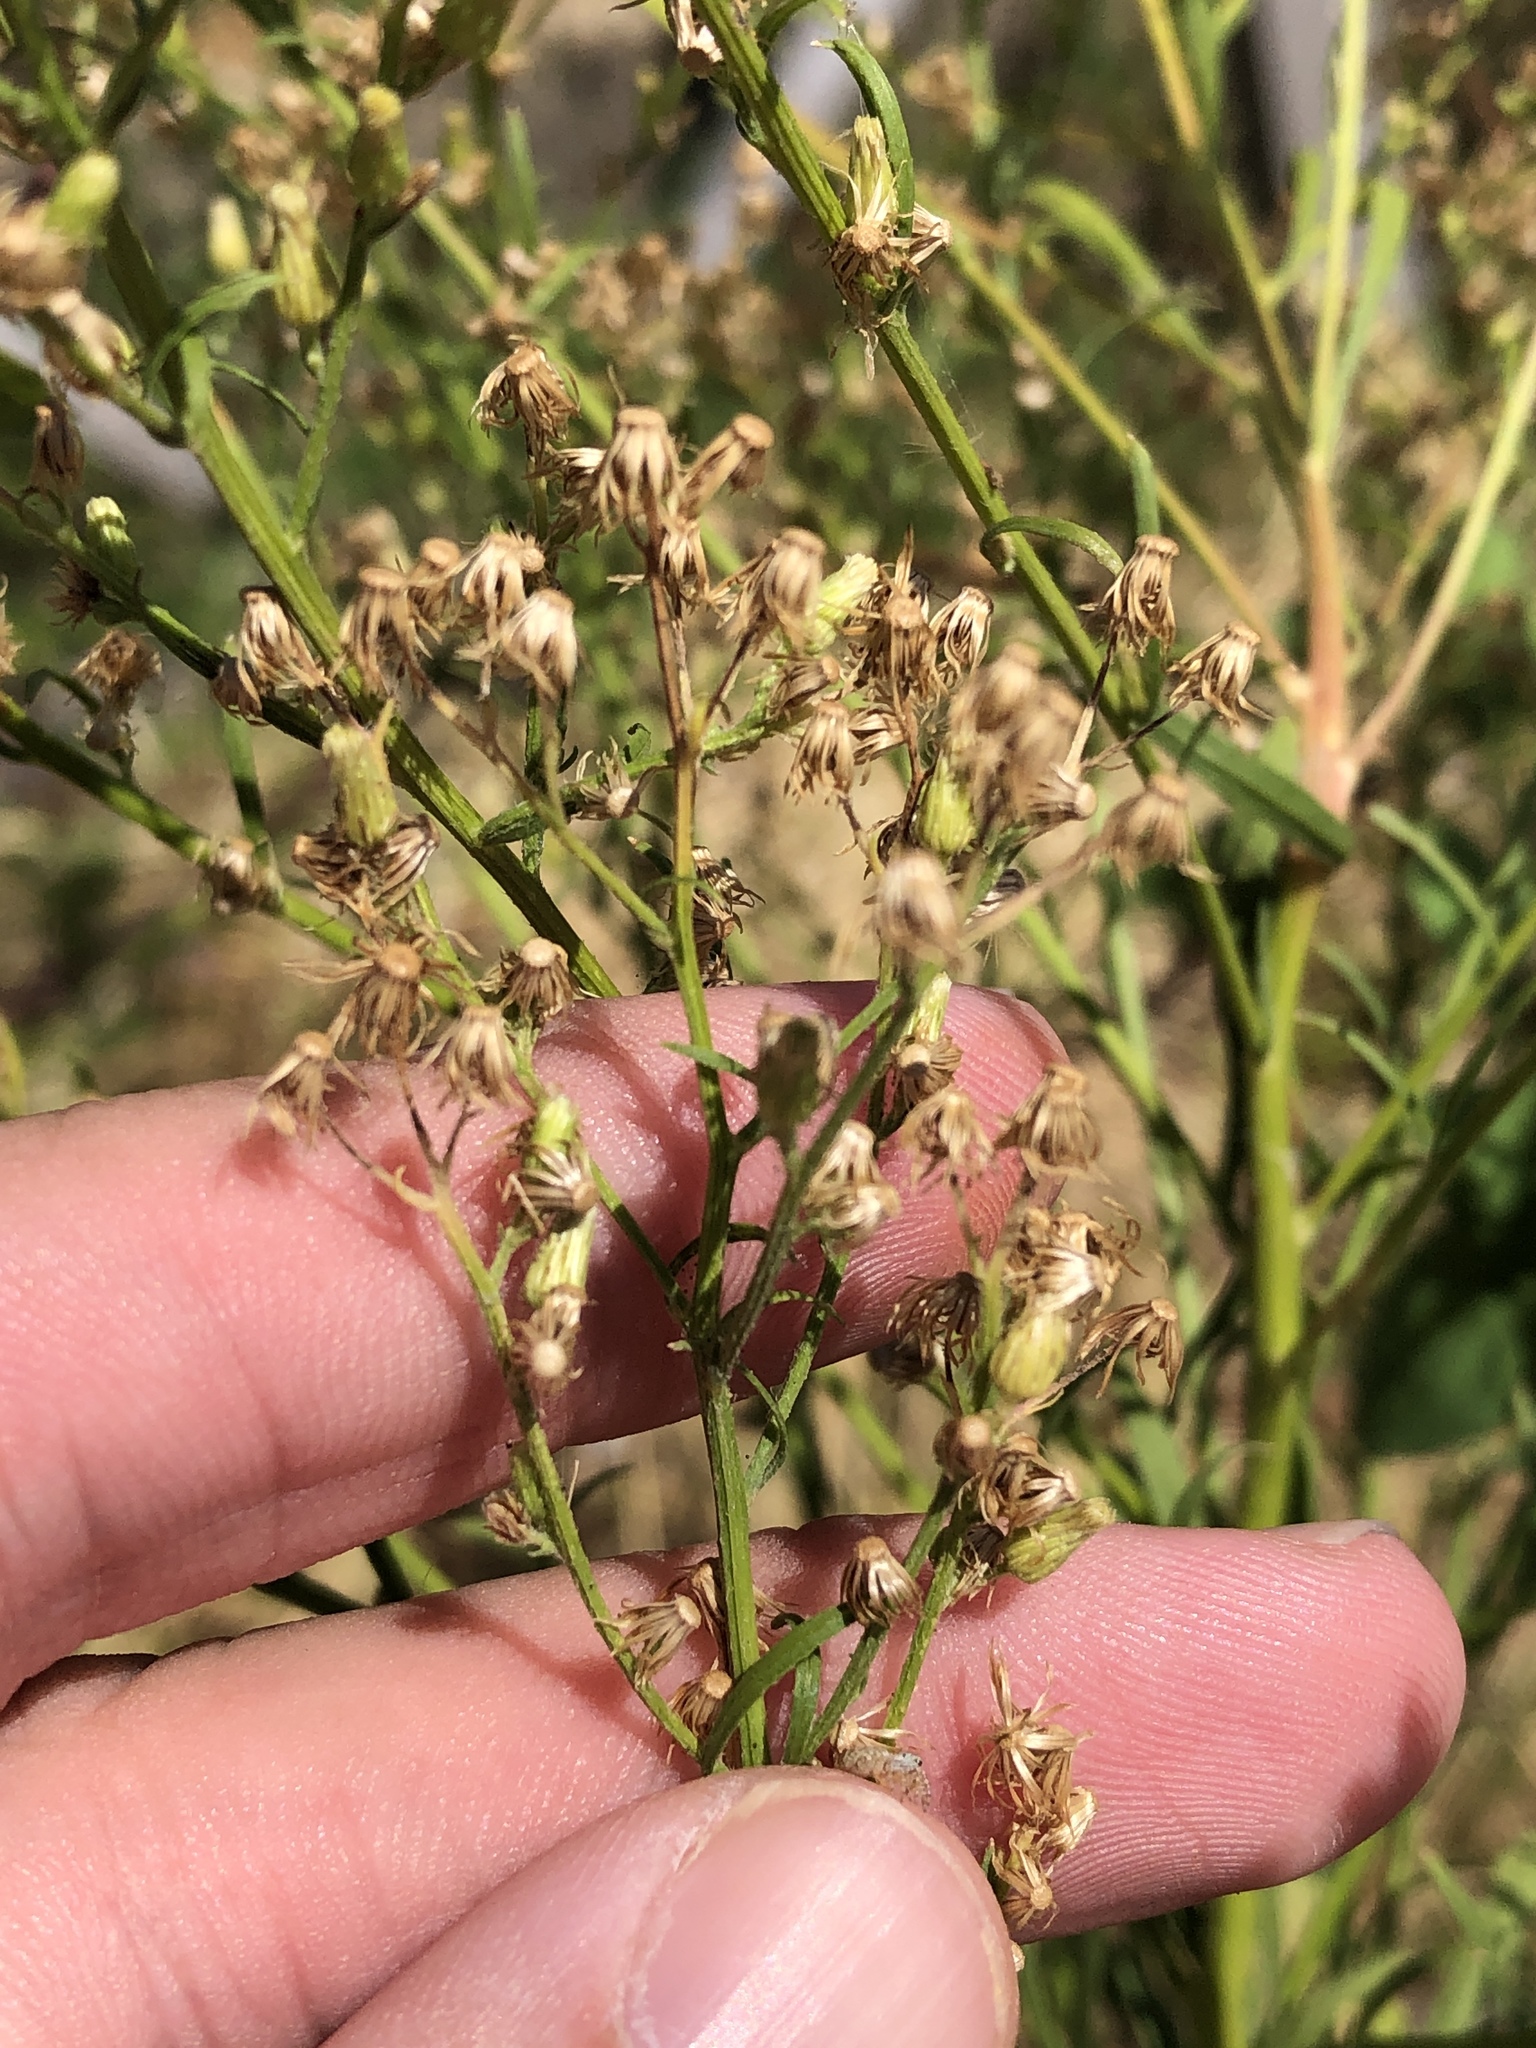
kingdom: Plantae
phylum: Tracheophyta
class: Magnoliopsida
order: Asterales
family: Asteraceae
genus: Erigeron
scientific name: Erigeron canadensis
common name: Canadian fleabane
